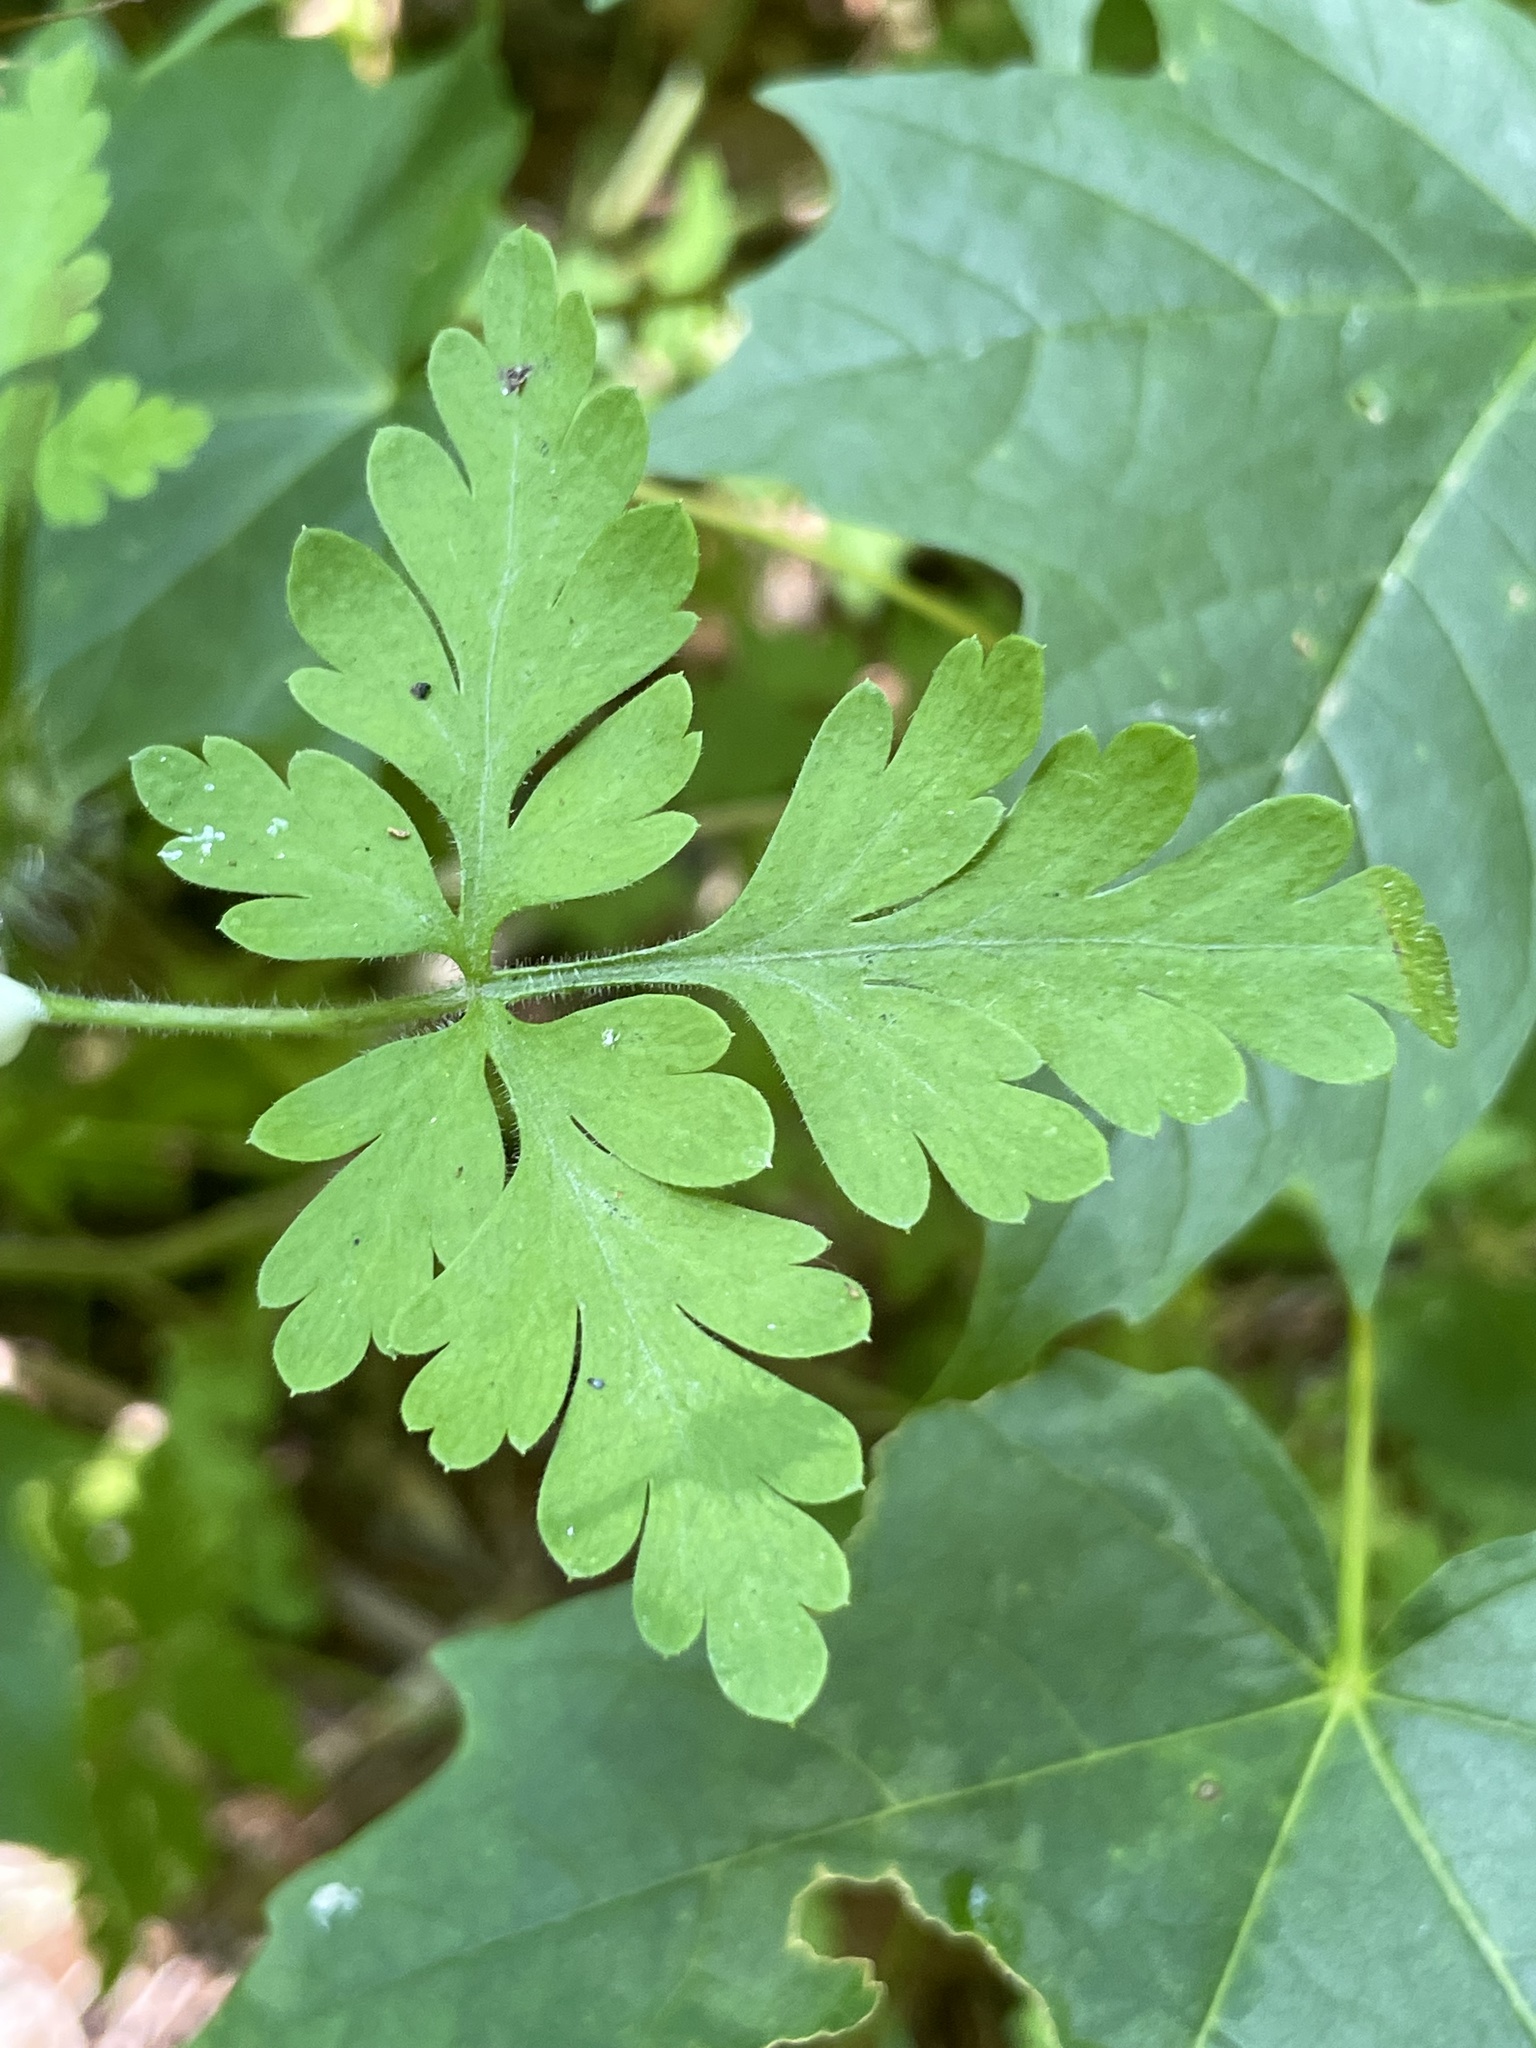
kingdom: Plantae
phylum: Tracheophyta
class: Magnoliopsida
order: Geraniales
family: Geraniaceae
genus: Geranium
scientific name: Geranium robertianum
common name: Herb-robert
